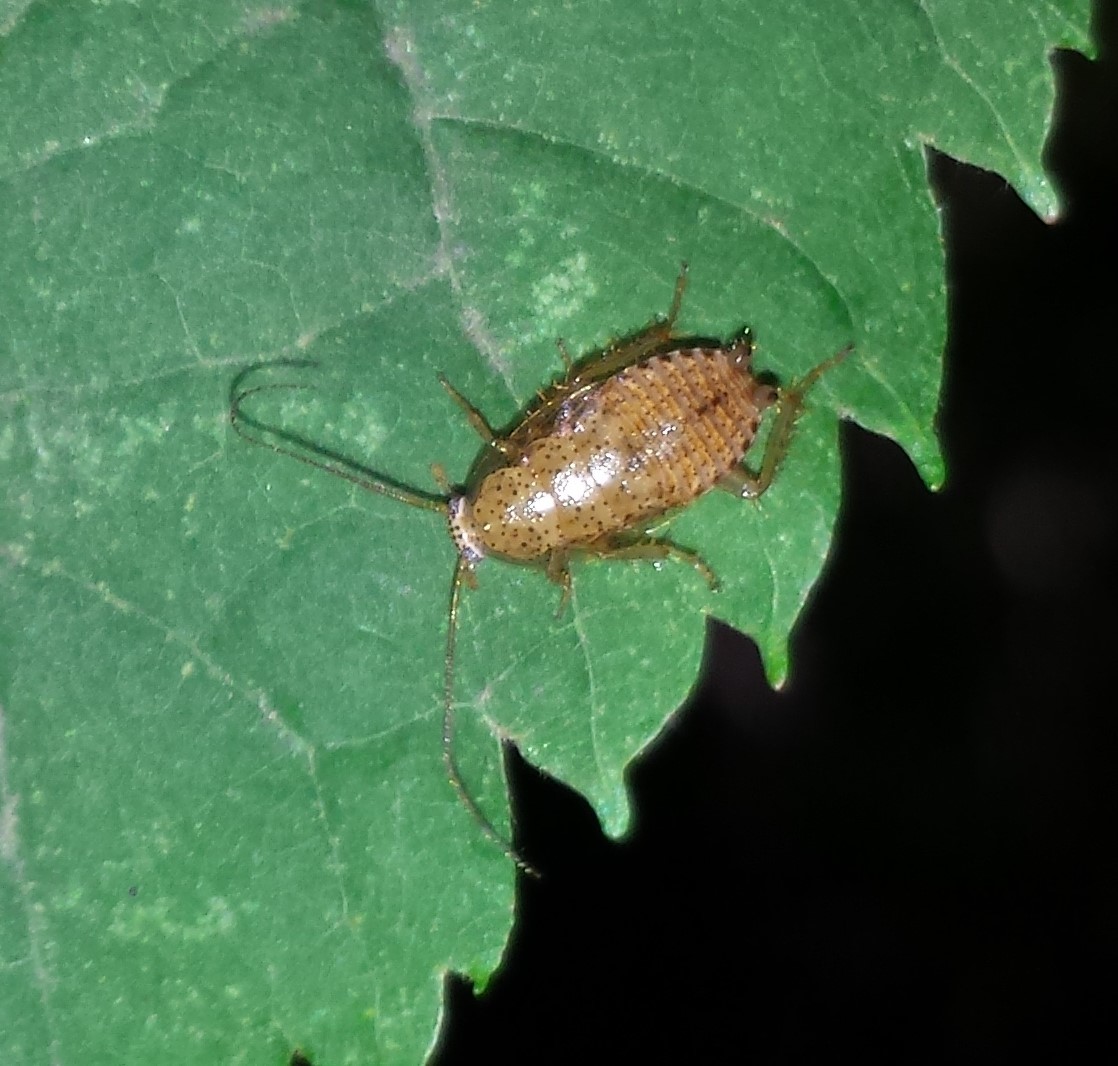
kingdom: Animalia
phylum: Arthropoda
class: Insecta
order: Blattodea
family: Ectobiidae
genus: Ectobius
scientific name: Ectobius pallidus
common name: Tawny cockroach
